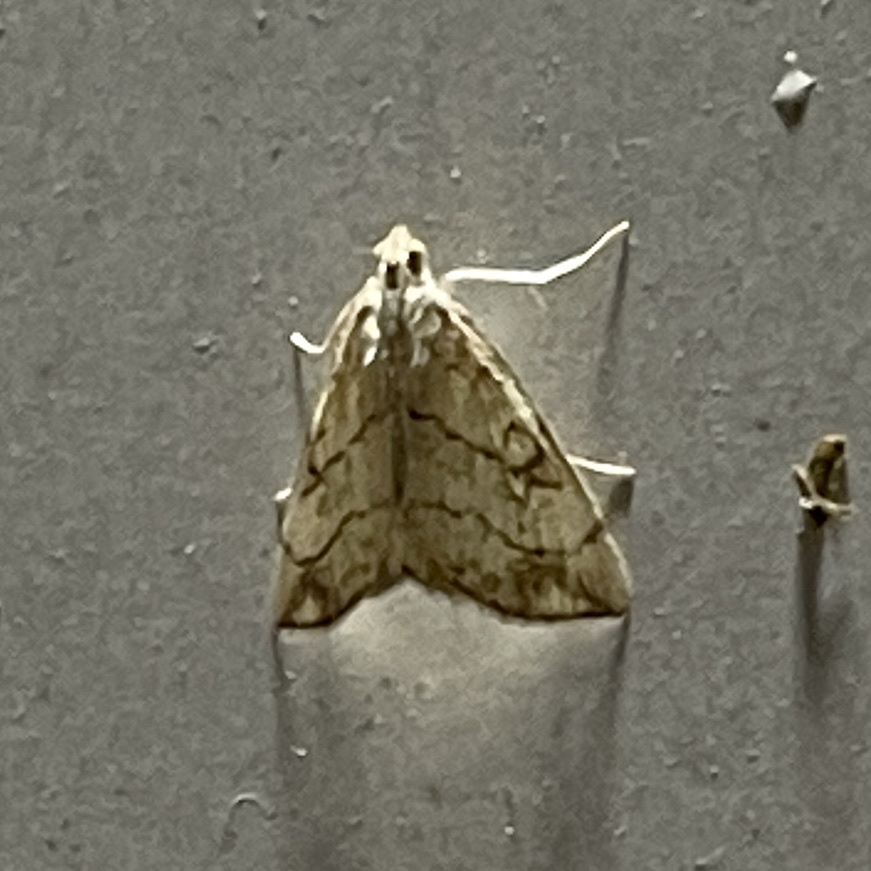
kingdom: Animalia
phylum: Arthropoda
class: Insecta
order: Lepidoptera
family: Crambidae
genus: Evergestis
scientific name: Evergestis pallidata
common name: Chequered pearl
